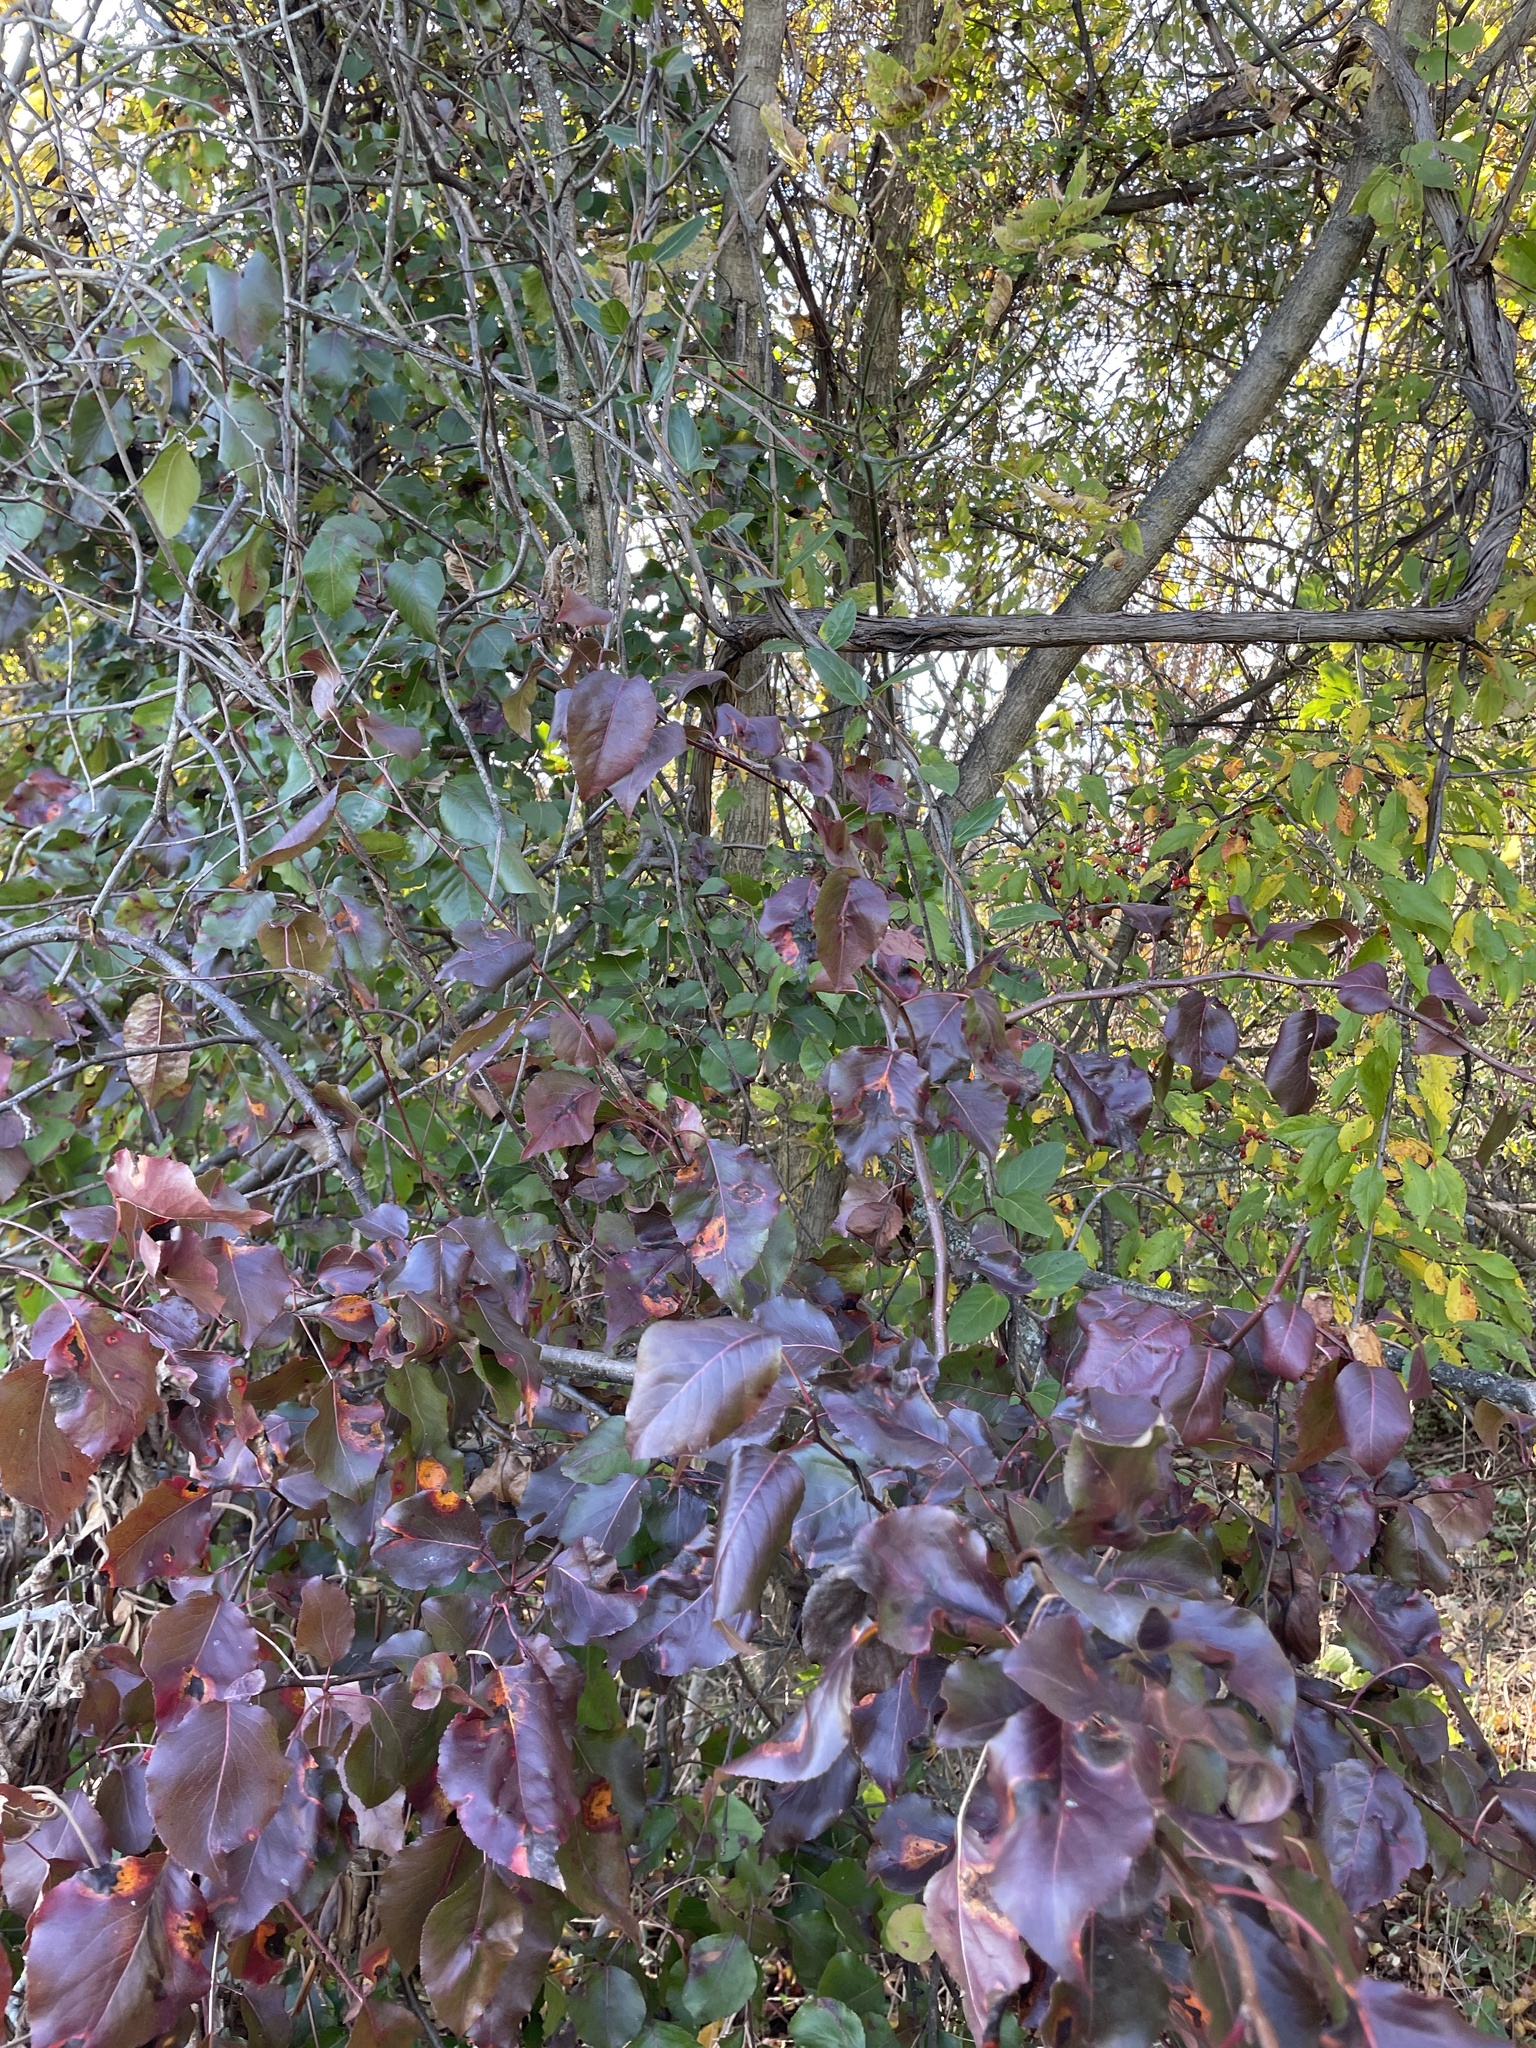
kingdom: Plantae
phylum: Tracheophyta
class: Magnoliopsida
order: Rosales
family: Rosaceae
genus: Pyrus
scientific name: Pyrus calleryana
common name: Callery pear
